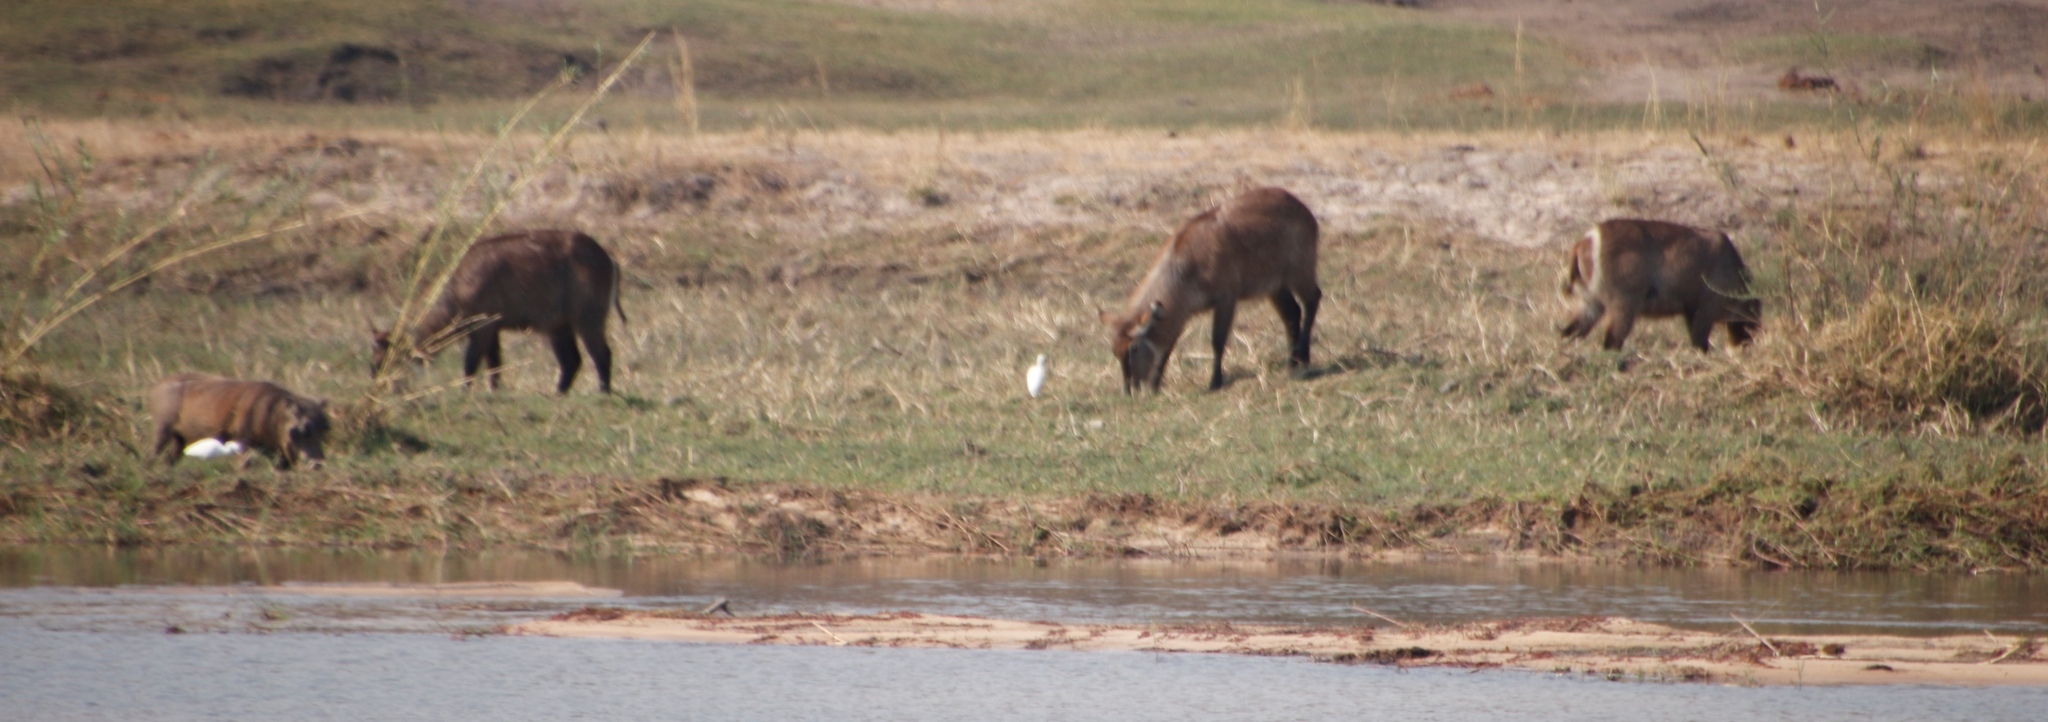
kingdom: Animalia
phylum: Chordata
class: Mammalia
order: Artiodactyla
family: Bovidae
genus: Kobus
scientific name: Kobus ellipsiprymnus
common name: Waterbuck
